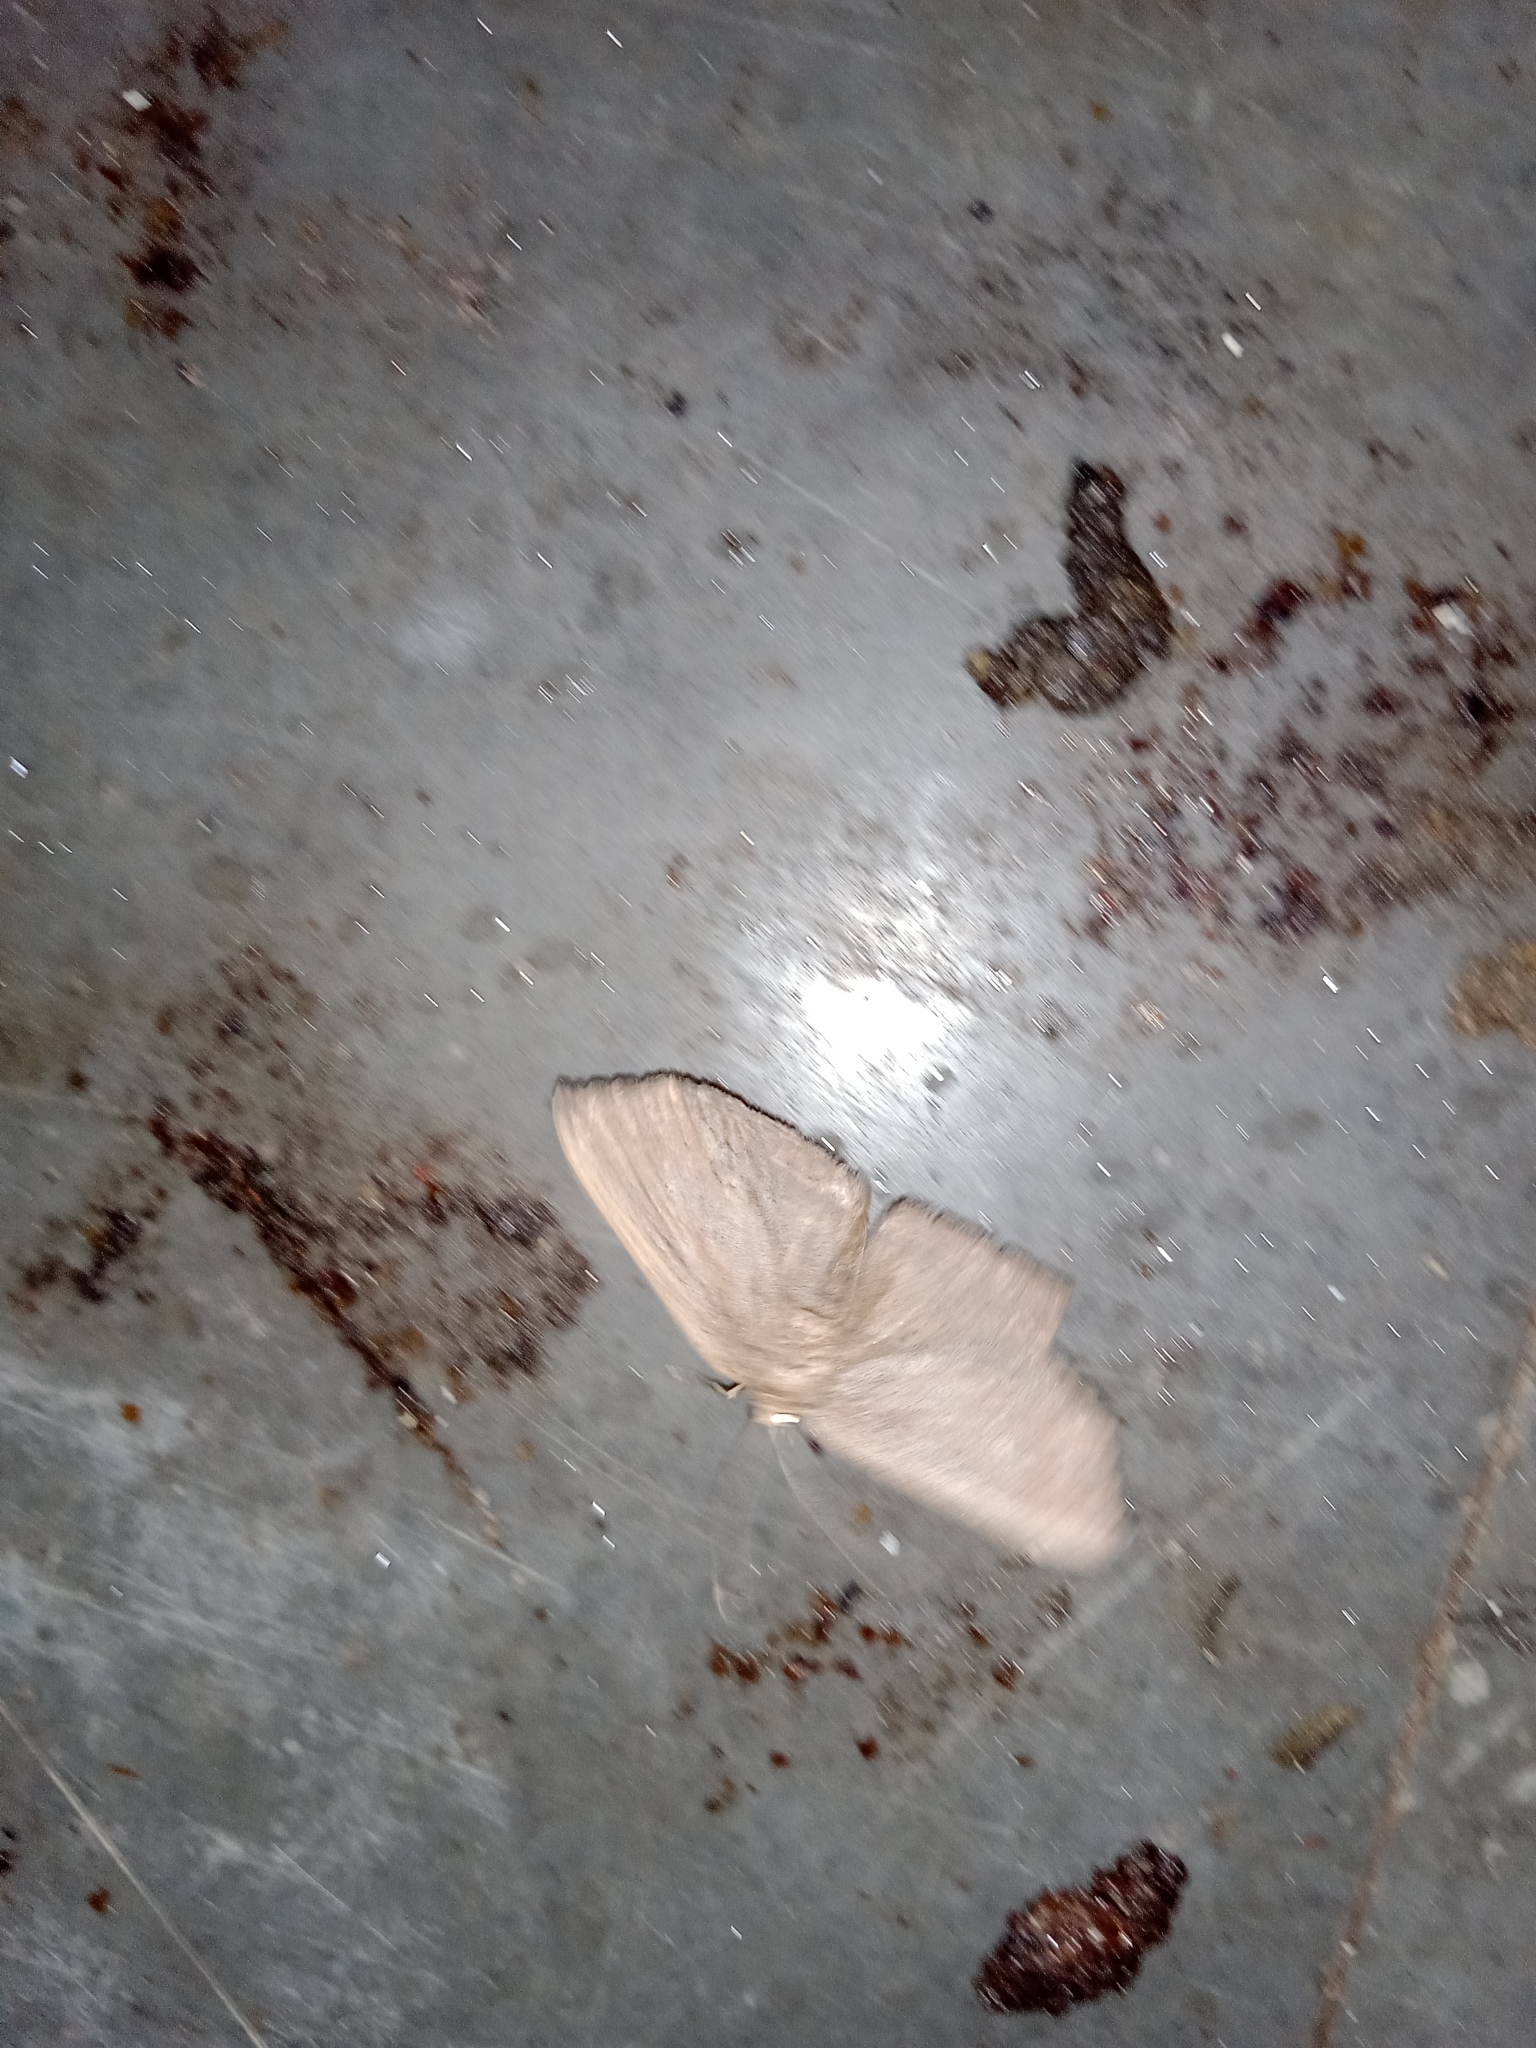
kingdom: Animalia
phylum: Arthropoda
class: Insecta
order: Lepidoptera
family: Drepanidae
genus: Phalacra
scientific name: Phalacra vidhisara
